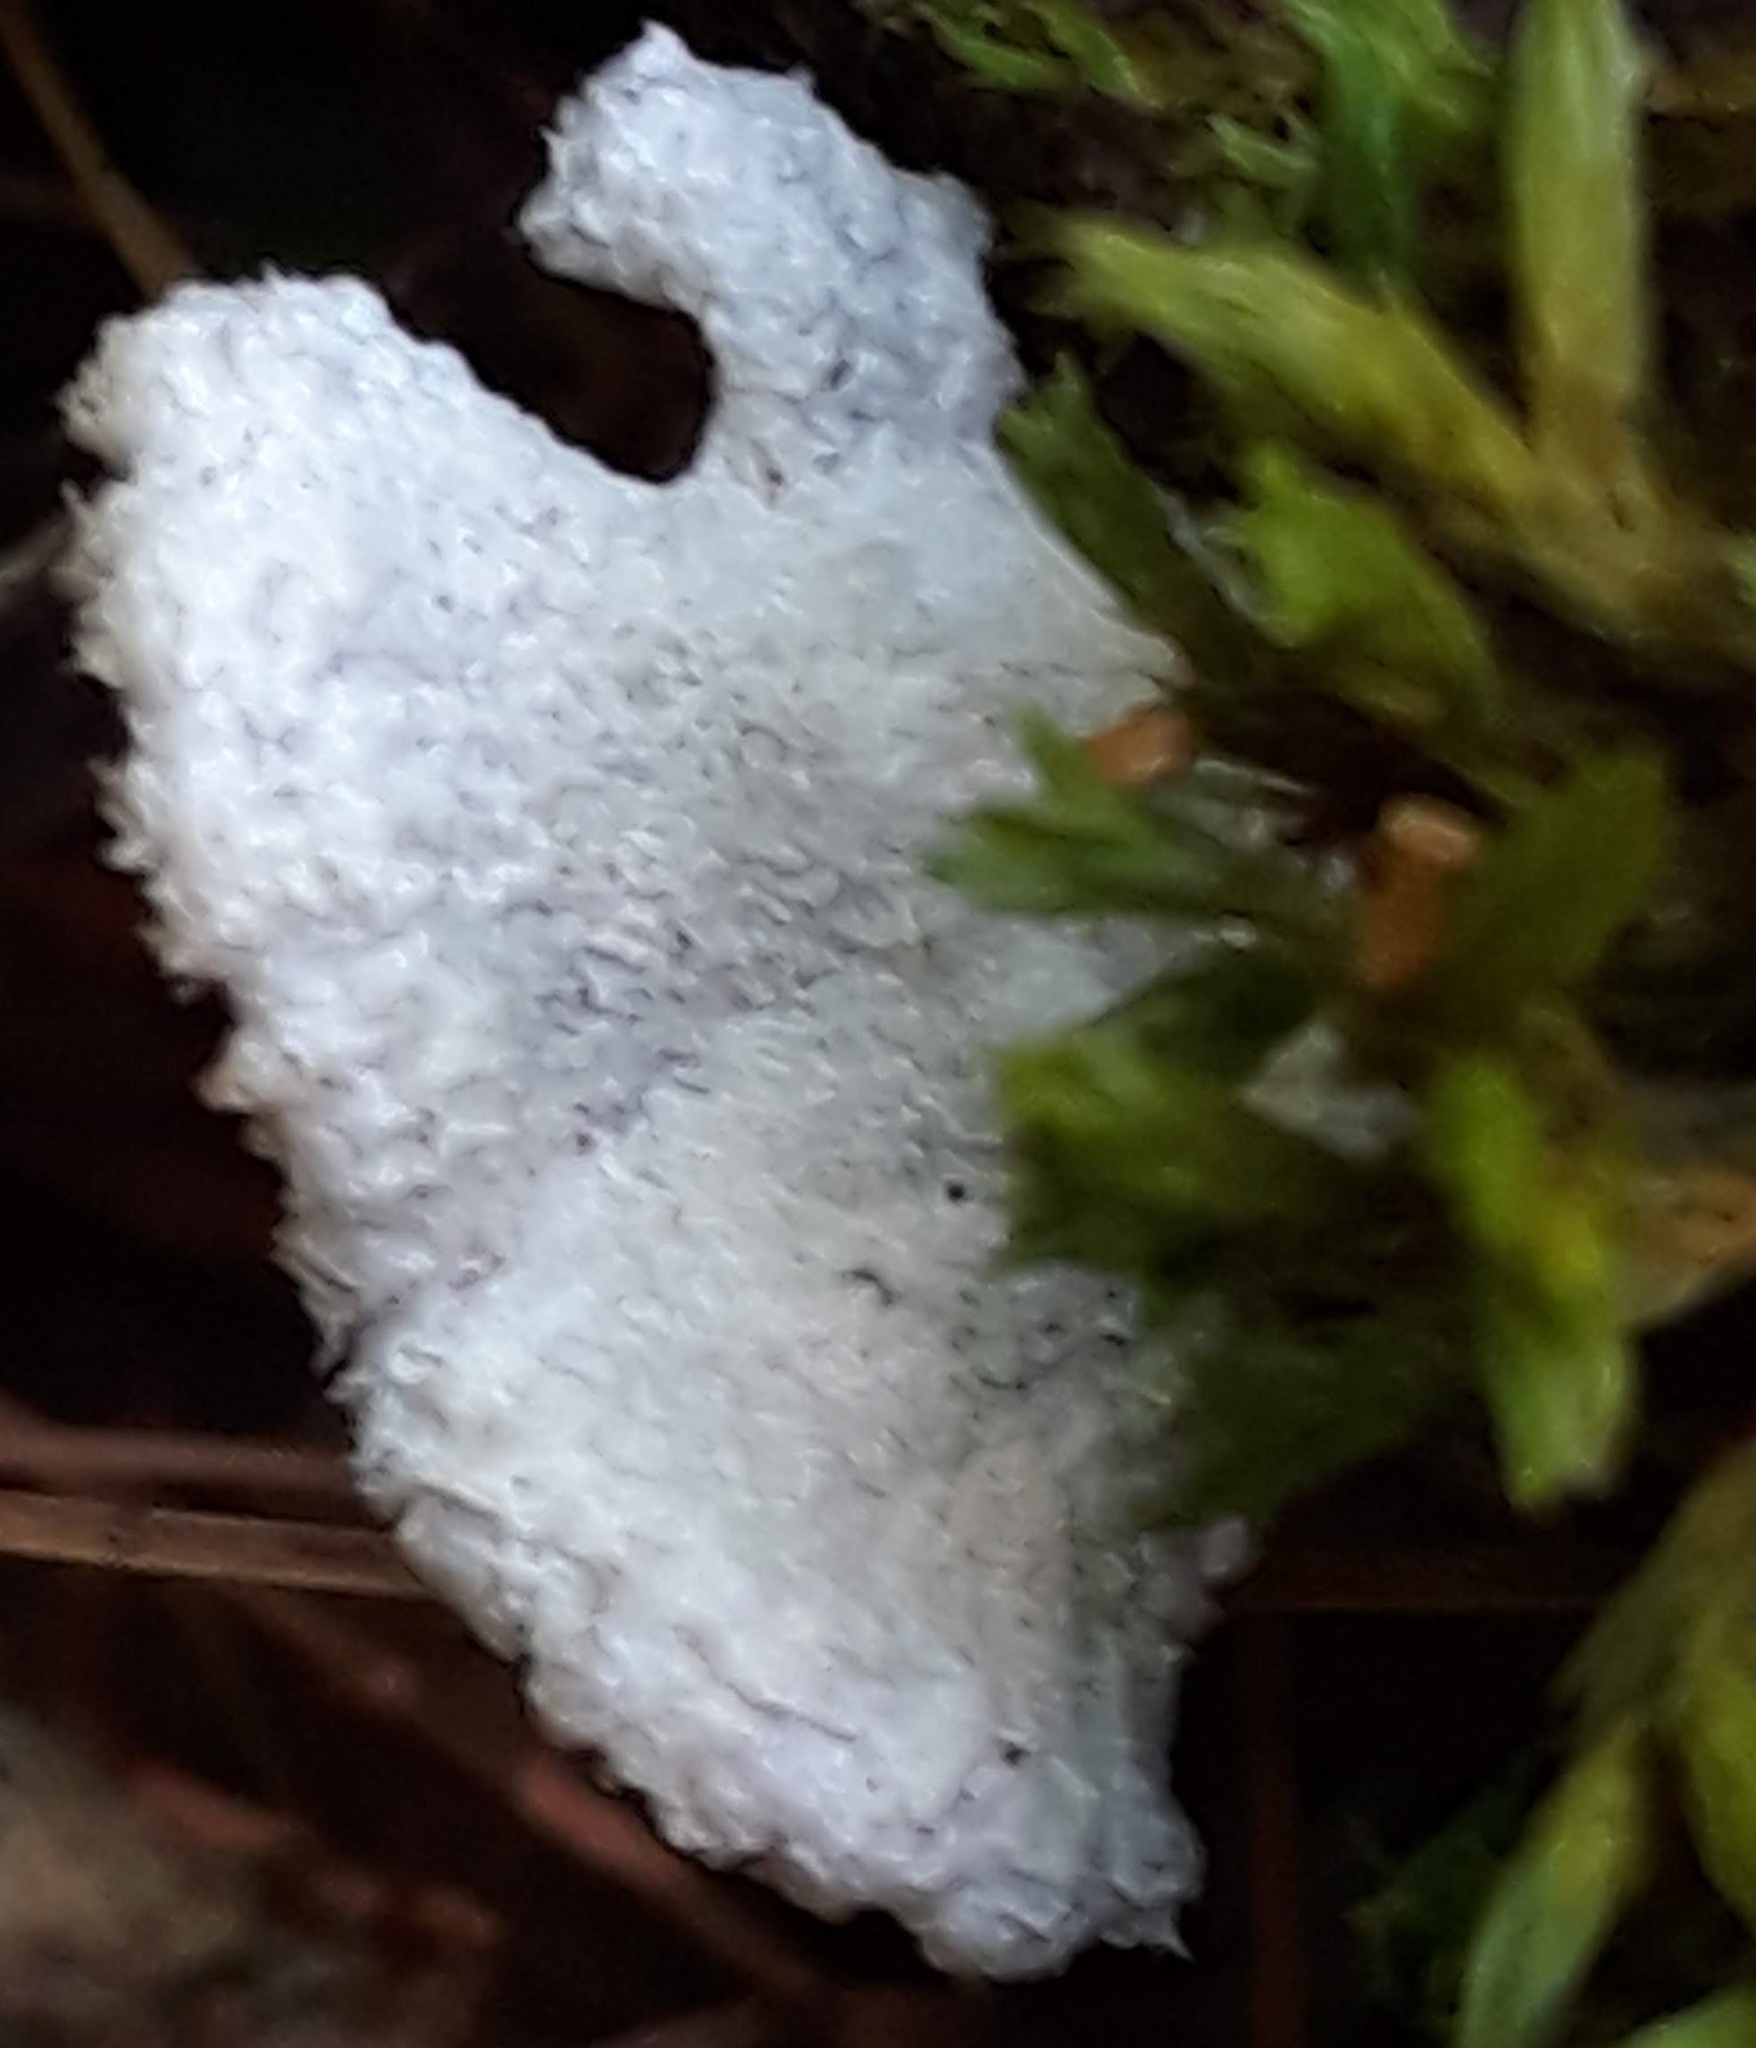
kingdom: Fungi
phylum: Basidiomycota
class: Agaricomycetes
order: Agaricales
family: Schizophyllaceae
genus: Schizophyllum
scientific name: Schizophyllum commune
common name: Common porecrust
